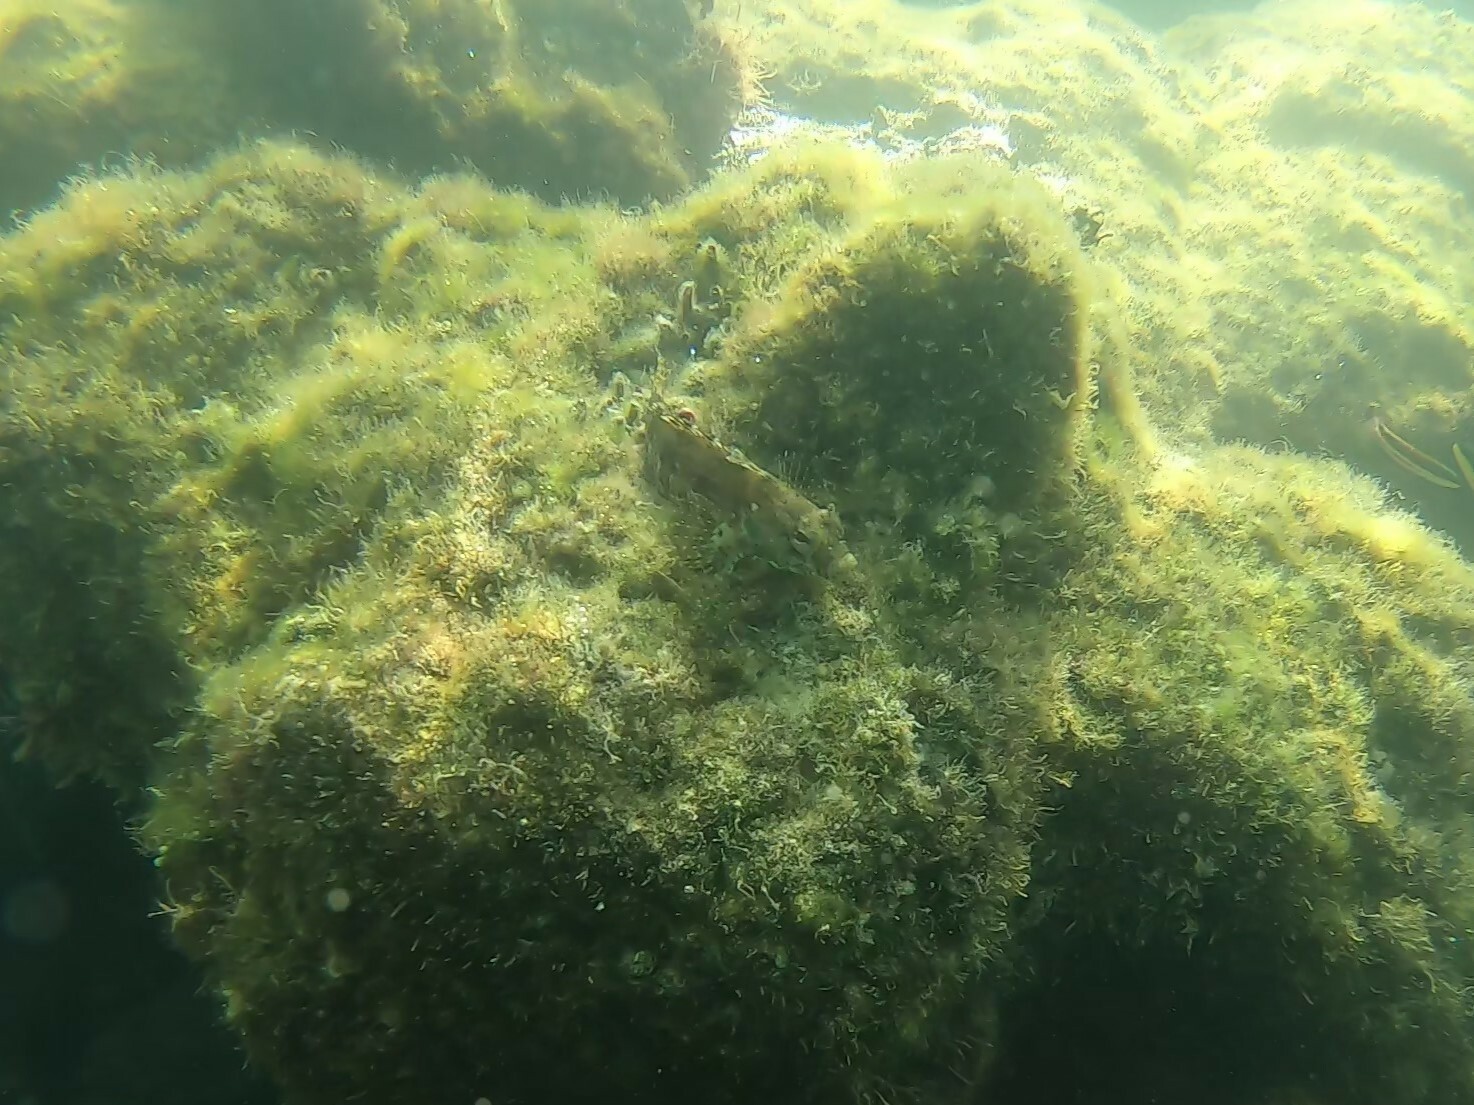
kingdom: Animalia
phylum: Chordata
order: Perciformes
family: Labrisomidae
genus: Gobioclinus
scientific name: Gobioclinus dendriticus
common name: Bravo clinid
